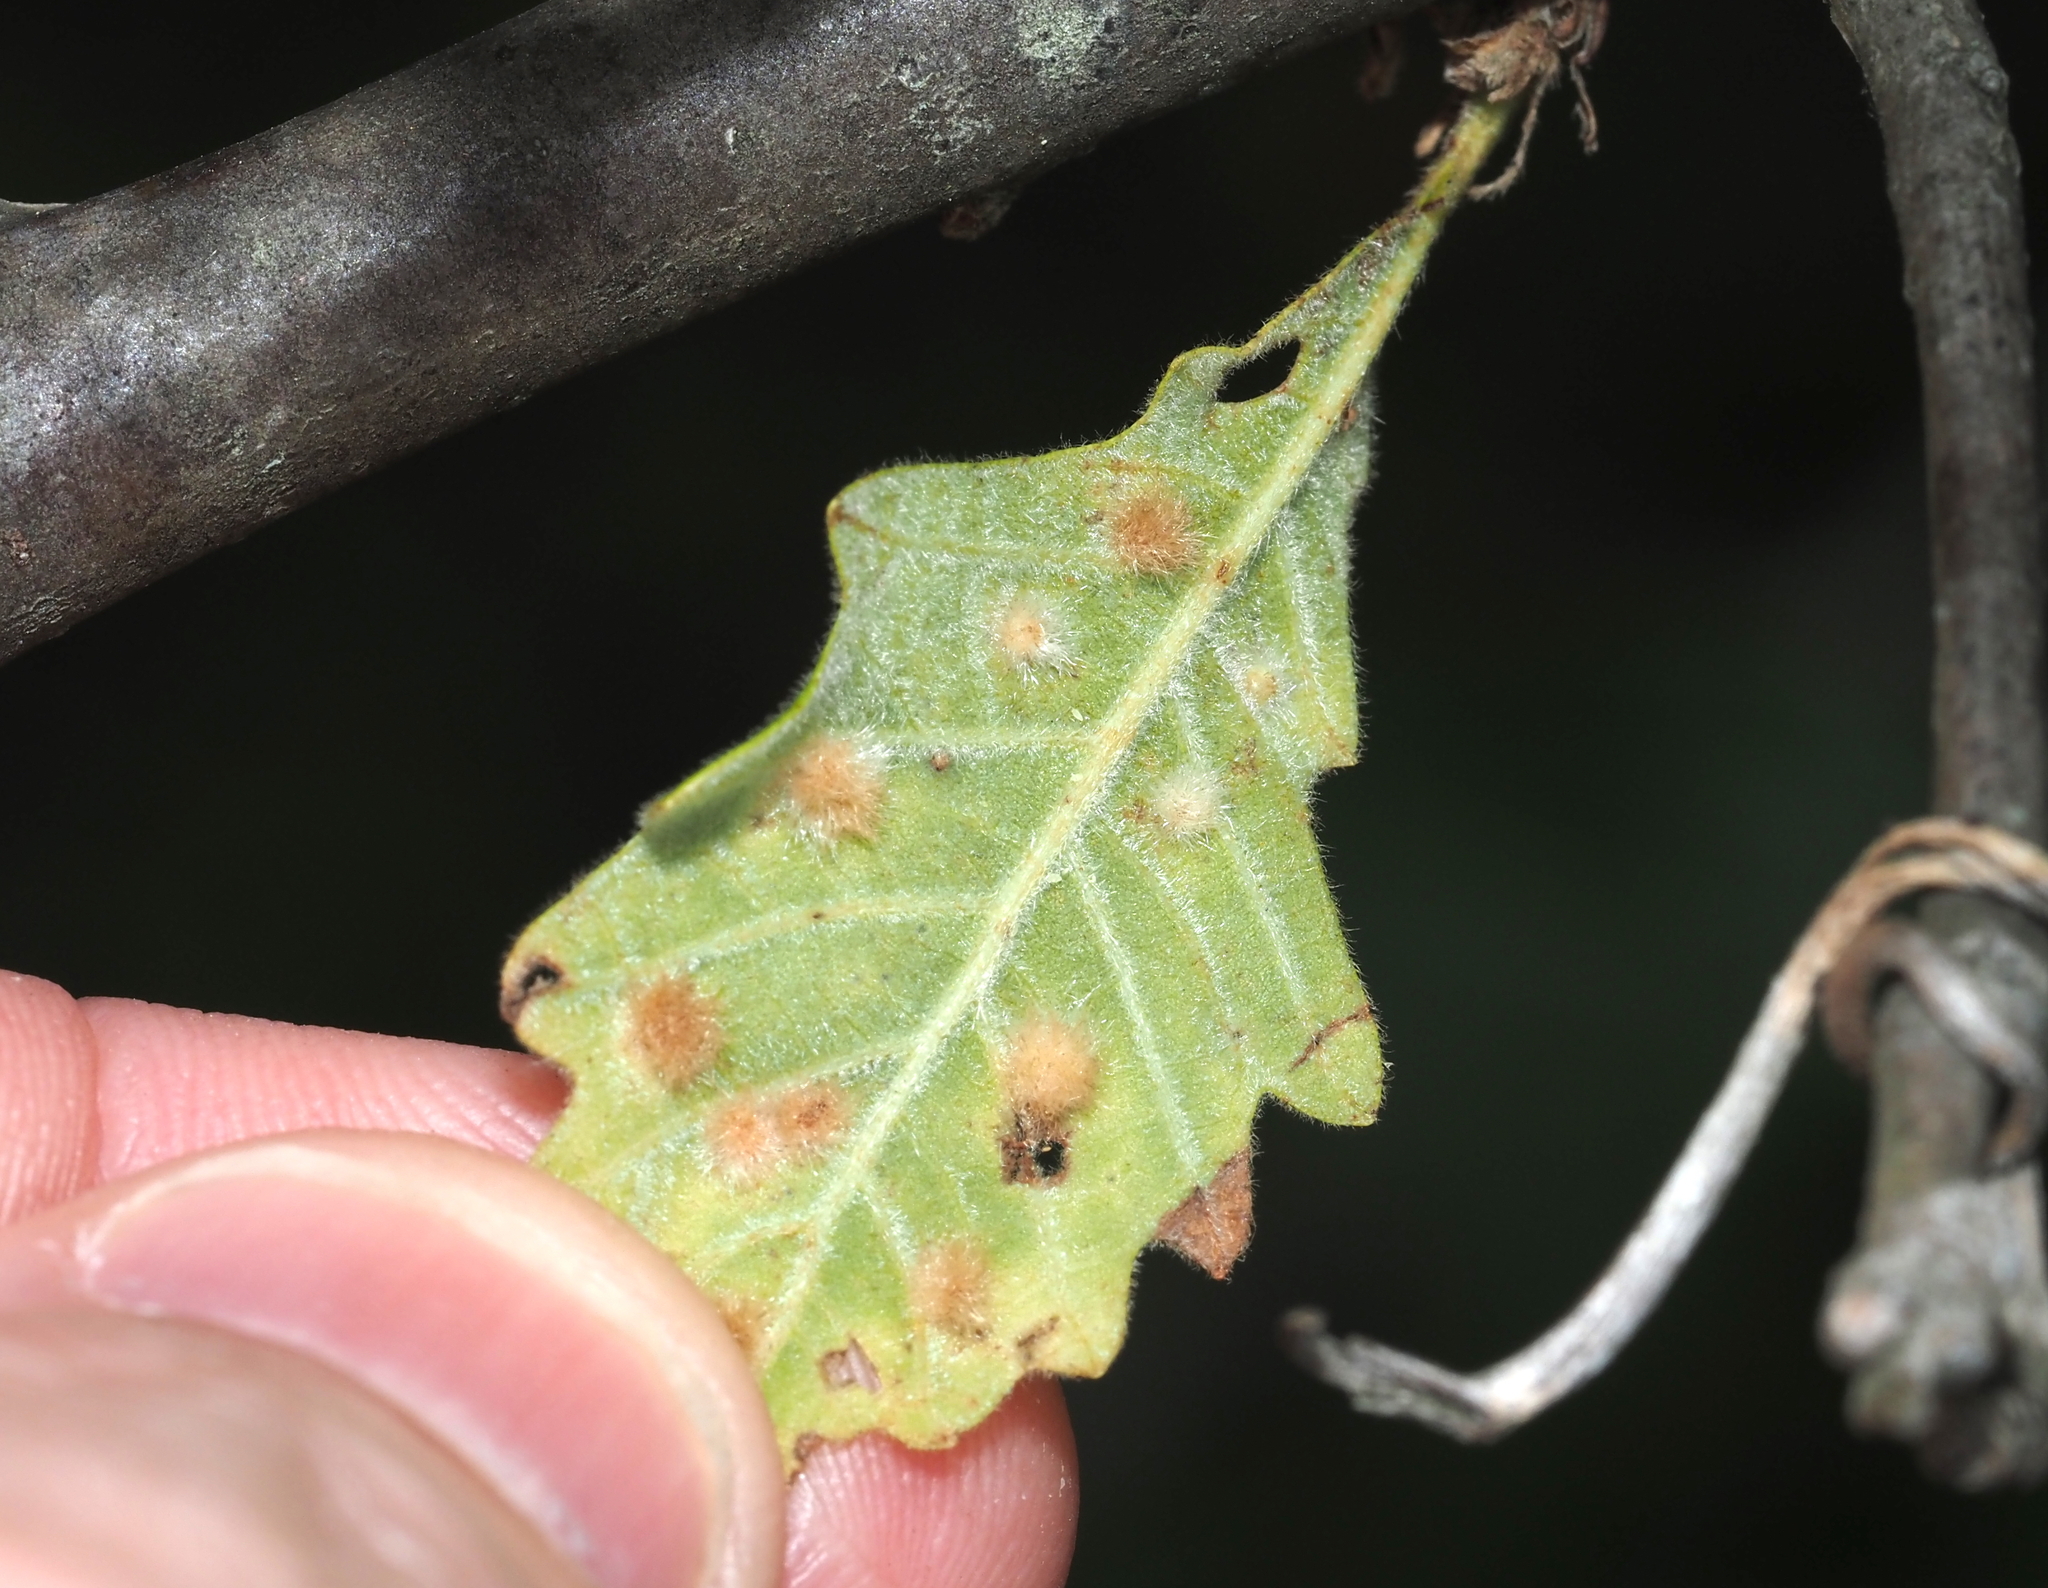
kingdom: Animalia
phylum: Arthropoda
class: Insecta
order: Hymenoptera
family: Cynipidae
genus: Neuroterus
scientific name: Neuroterus floccosus
